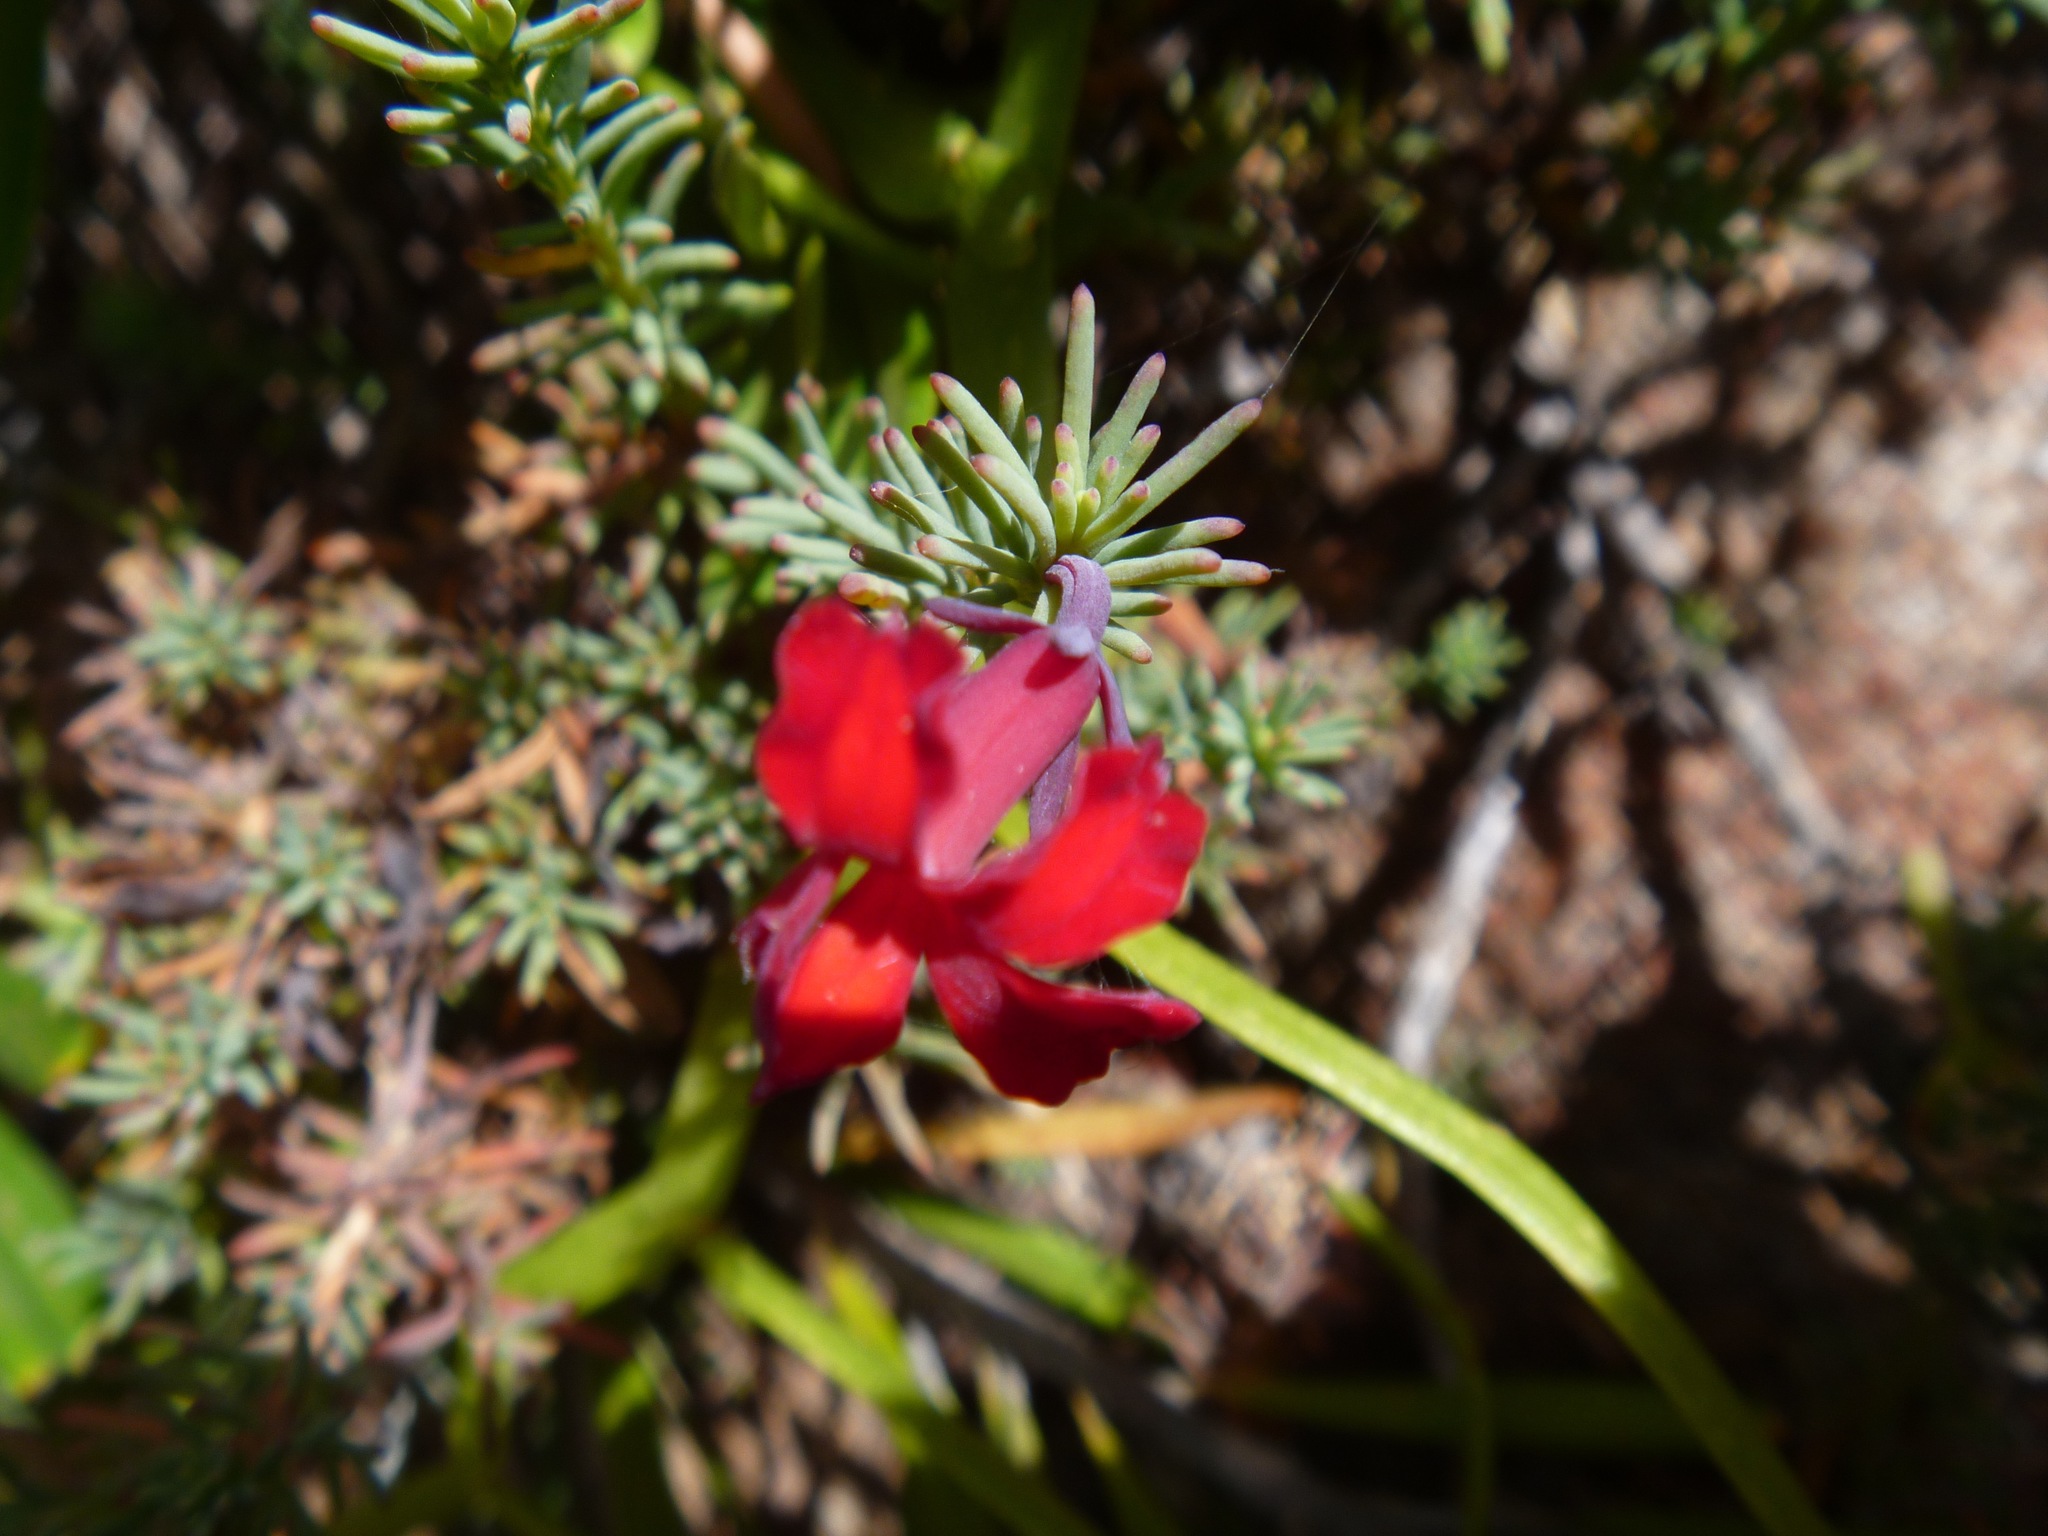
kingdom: Plantae
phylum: Tracheophyta
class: Magnoliopsida
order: Asterales
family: Goodeniaceae
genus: Lechenaultia
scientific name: Lechenaultia formosa
